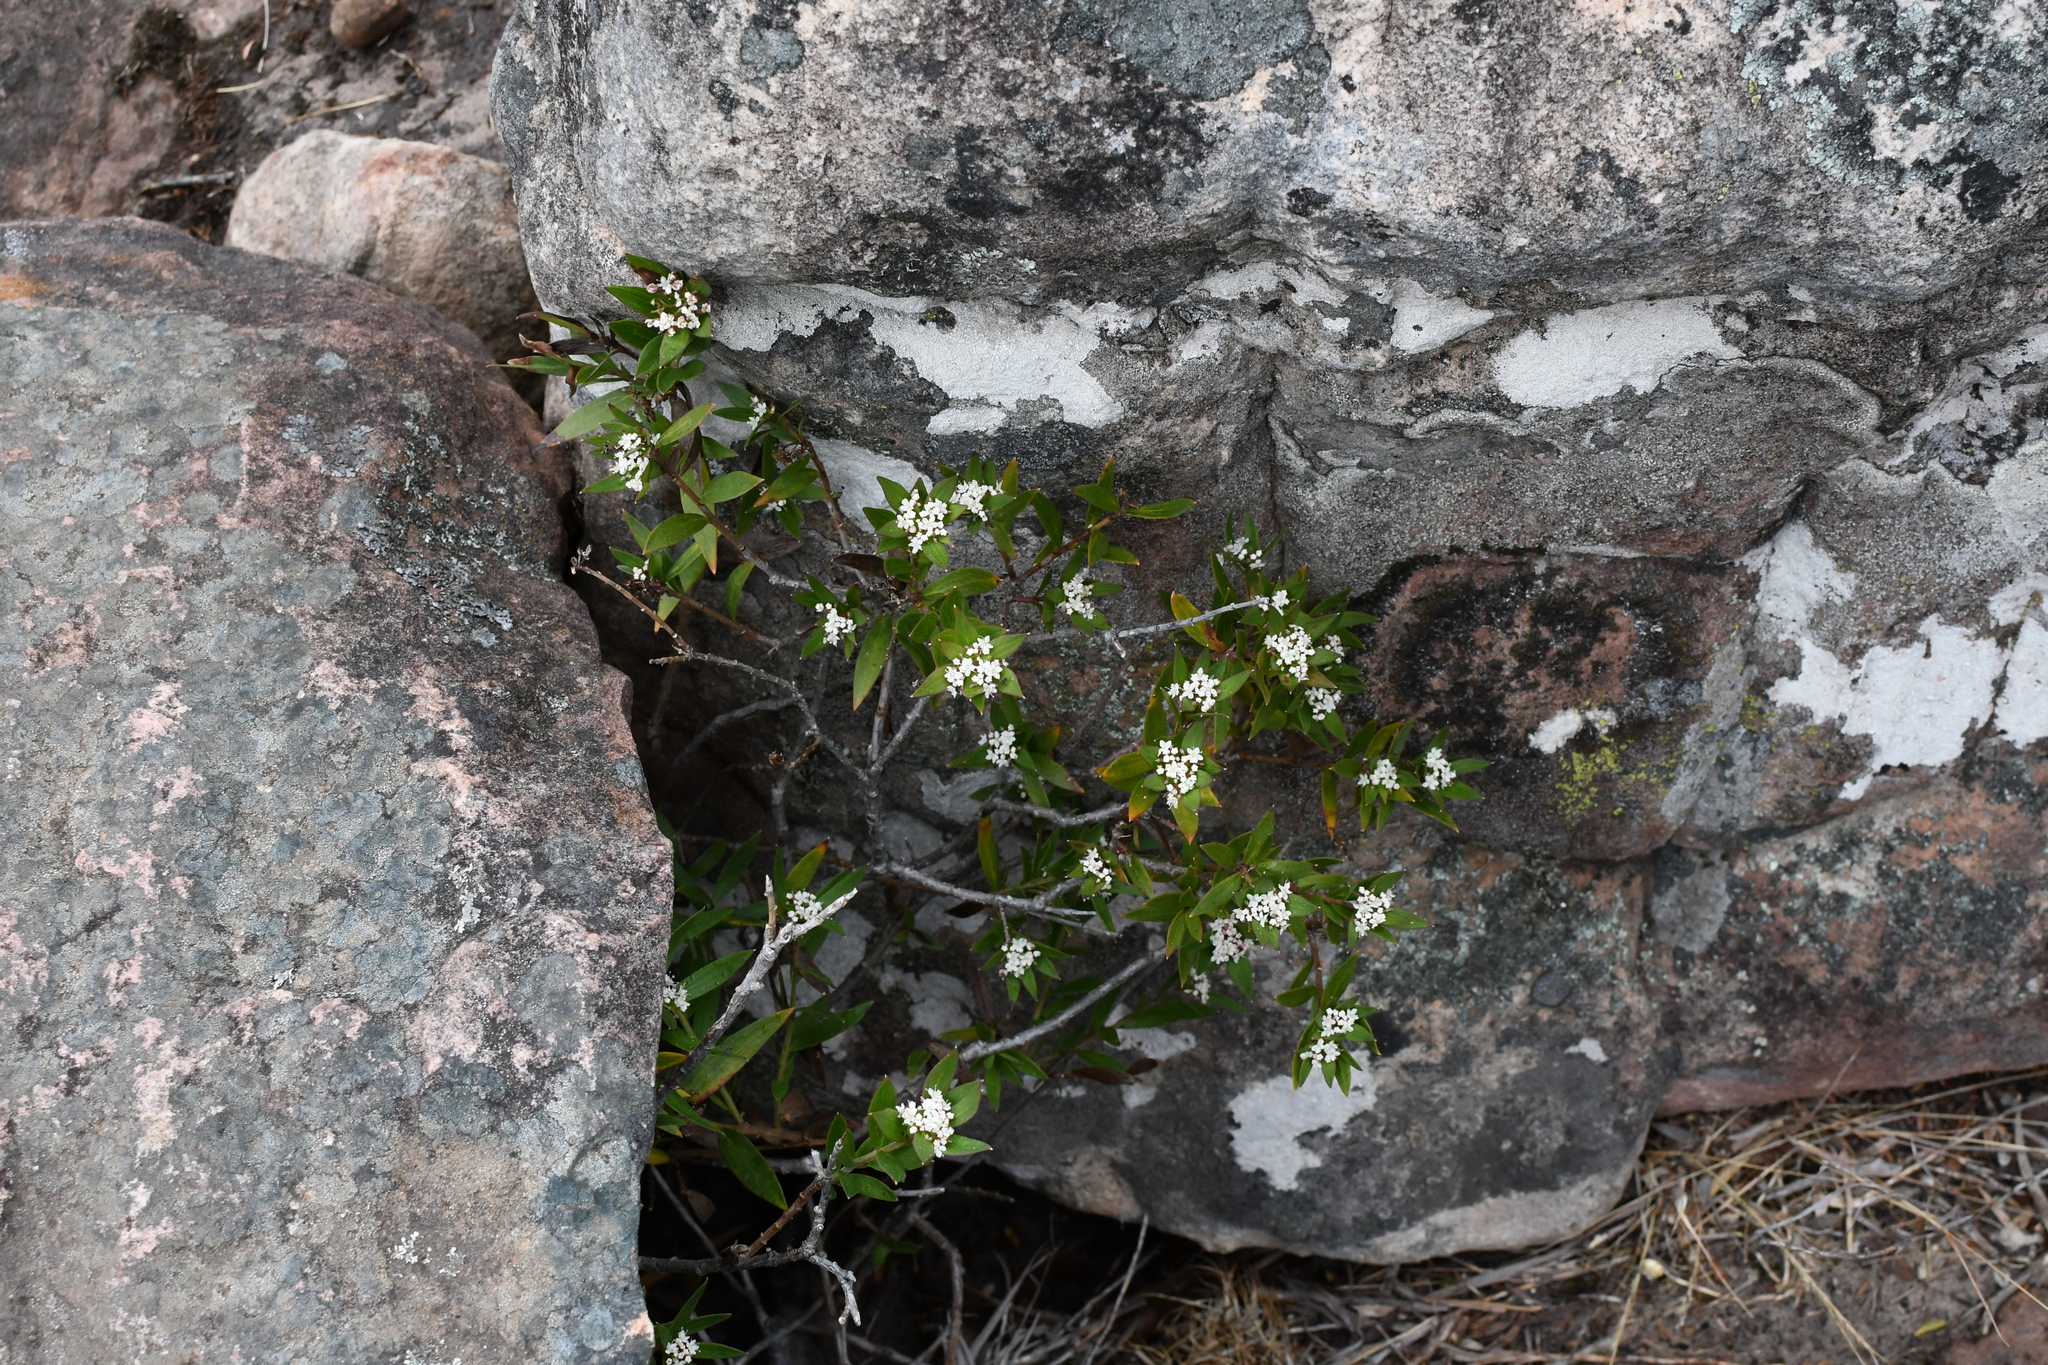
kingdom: Plantae
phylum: Tracheophyta
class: Magnoliopsida
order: Apiales
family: Apiaceae
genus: Platysace
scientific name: Platysace lanceolata
